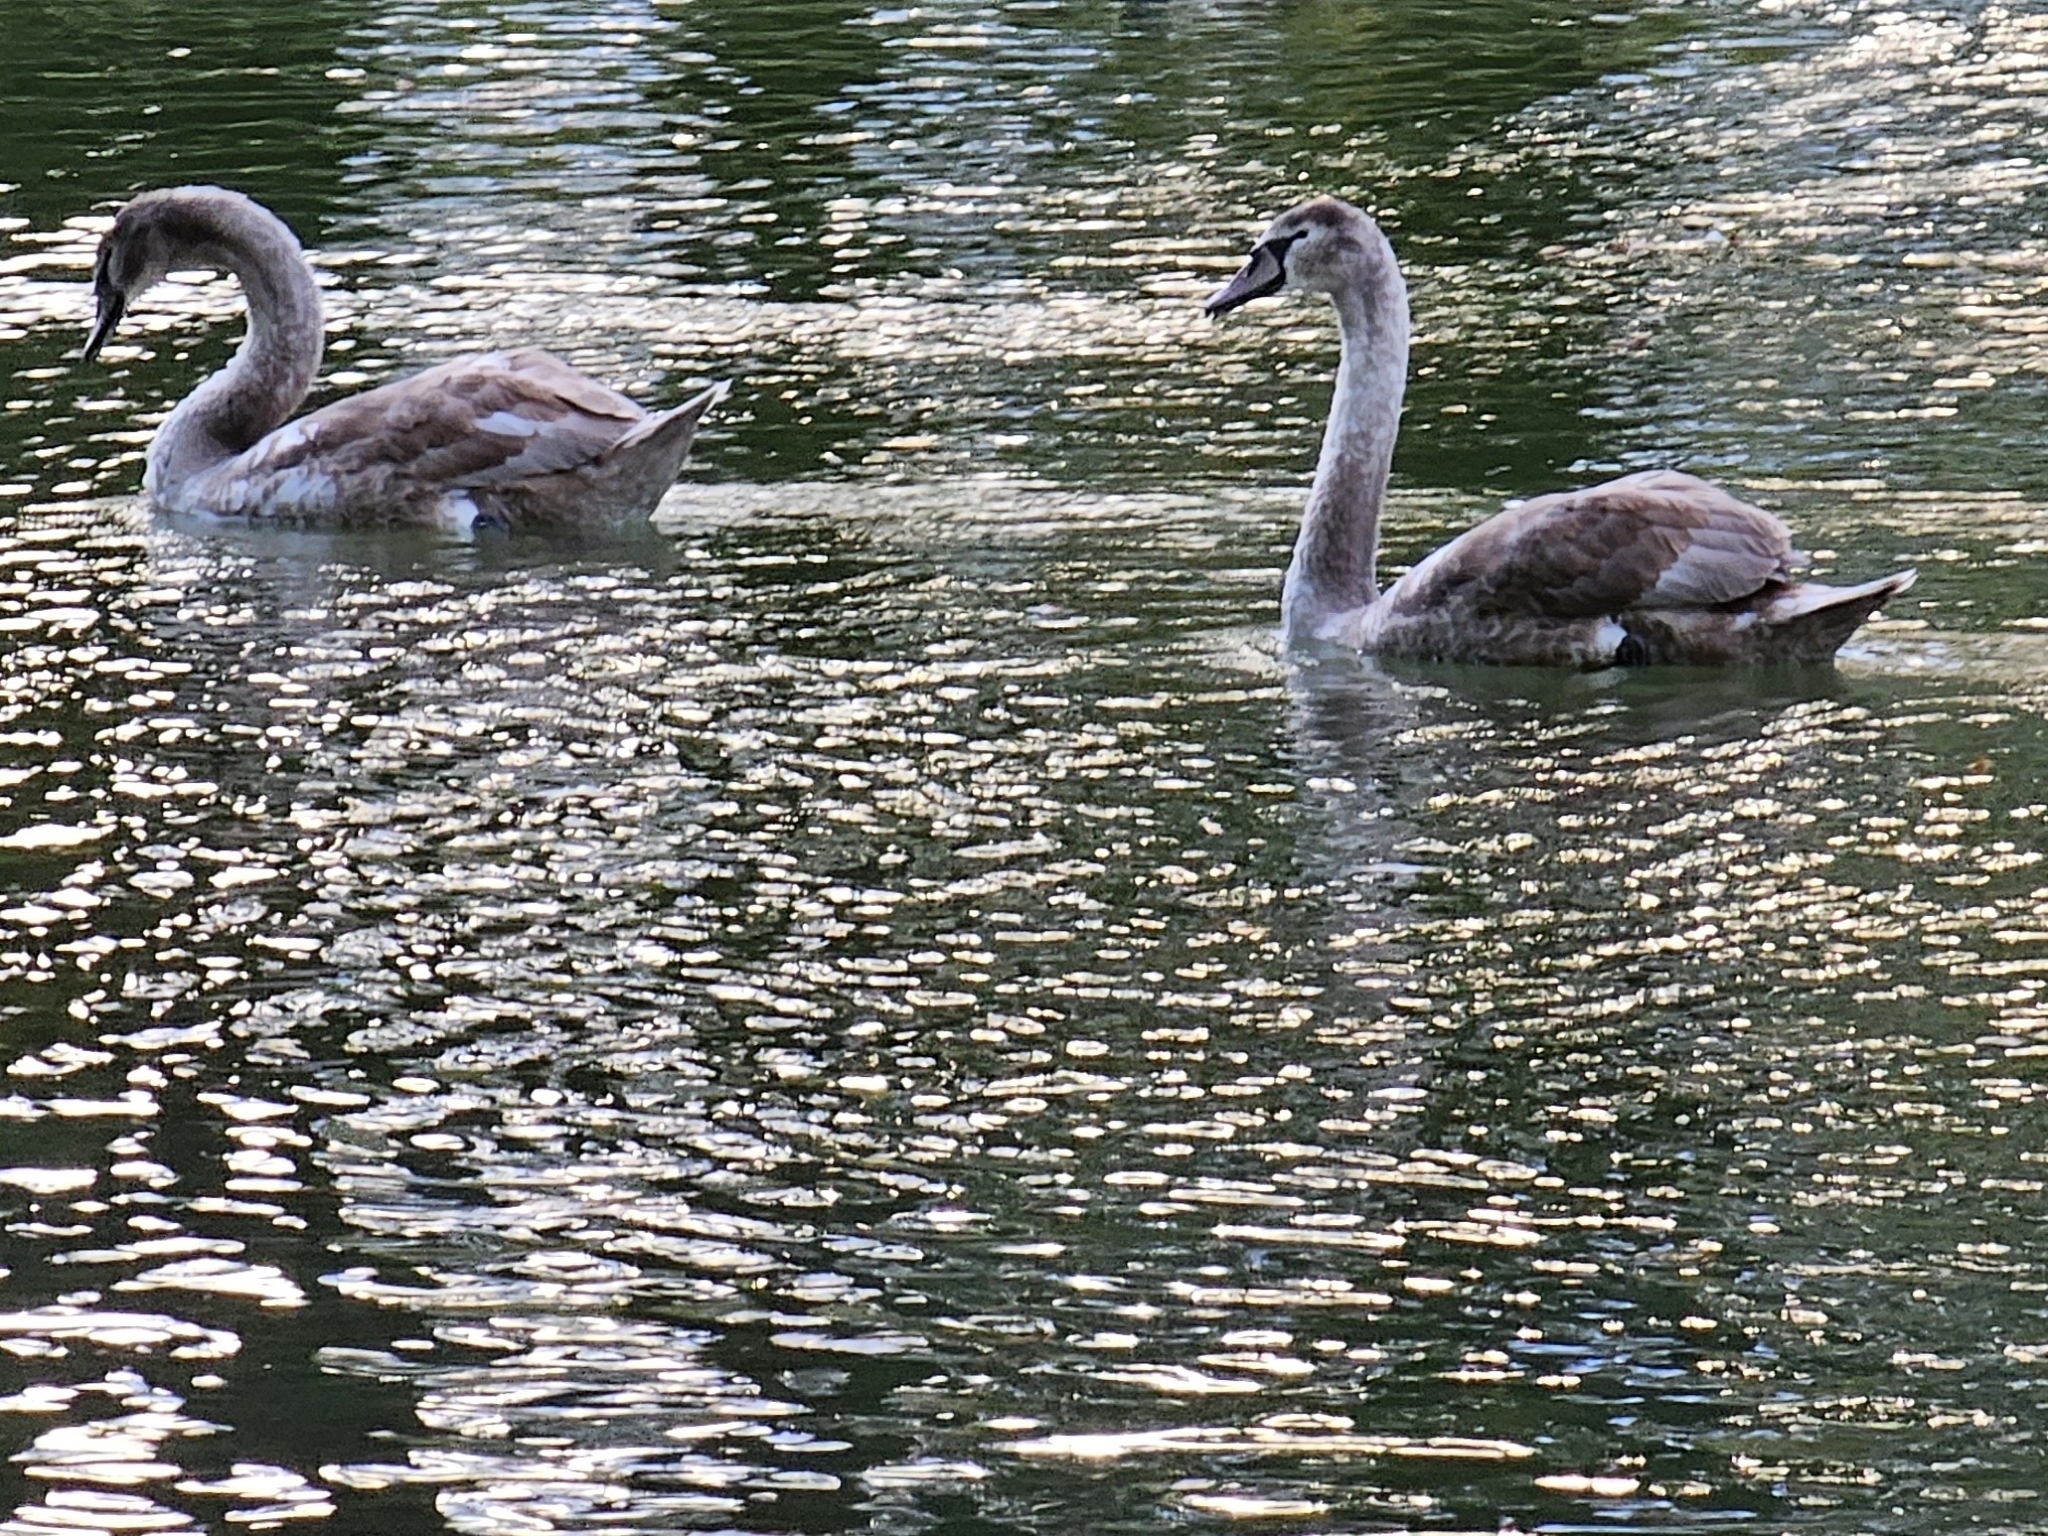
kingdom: Animalia
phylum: Chordata
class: Aves
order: Anseriformes
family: Anatidae
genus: Cygnus
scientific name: Cygnus olor
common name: Mute swan
